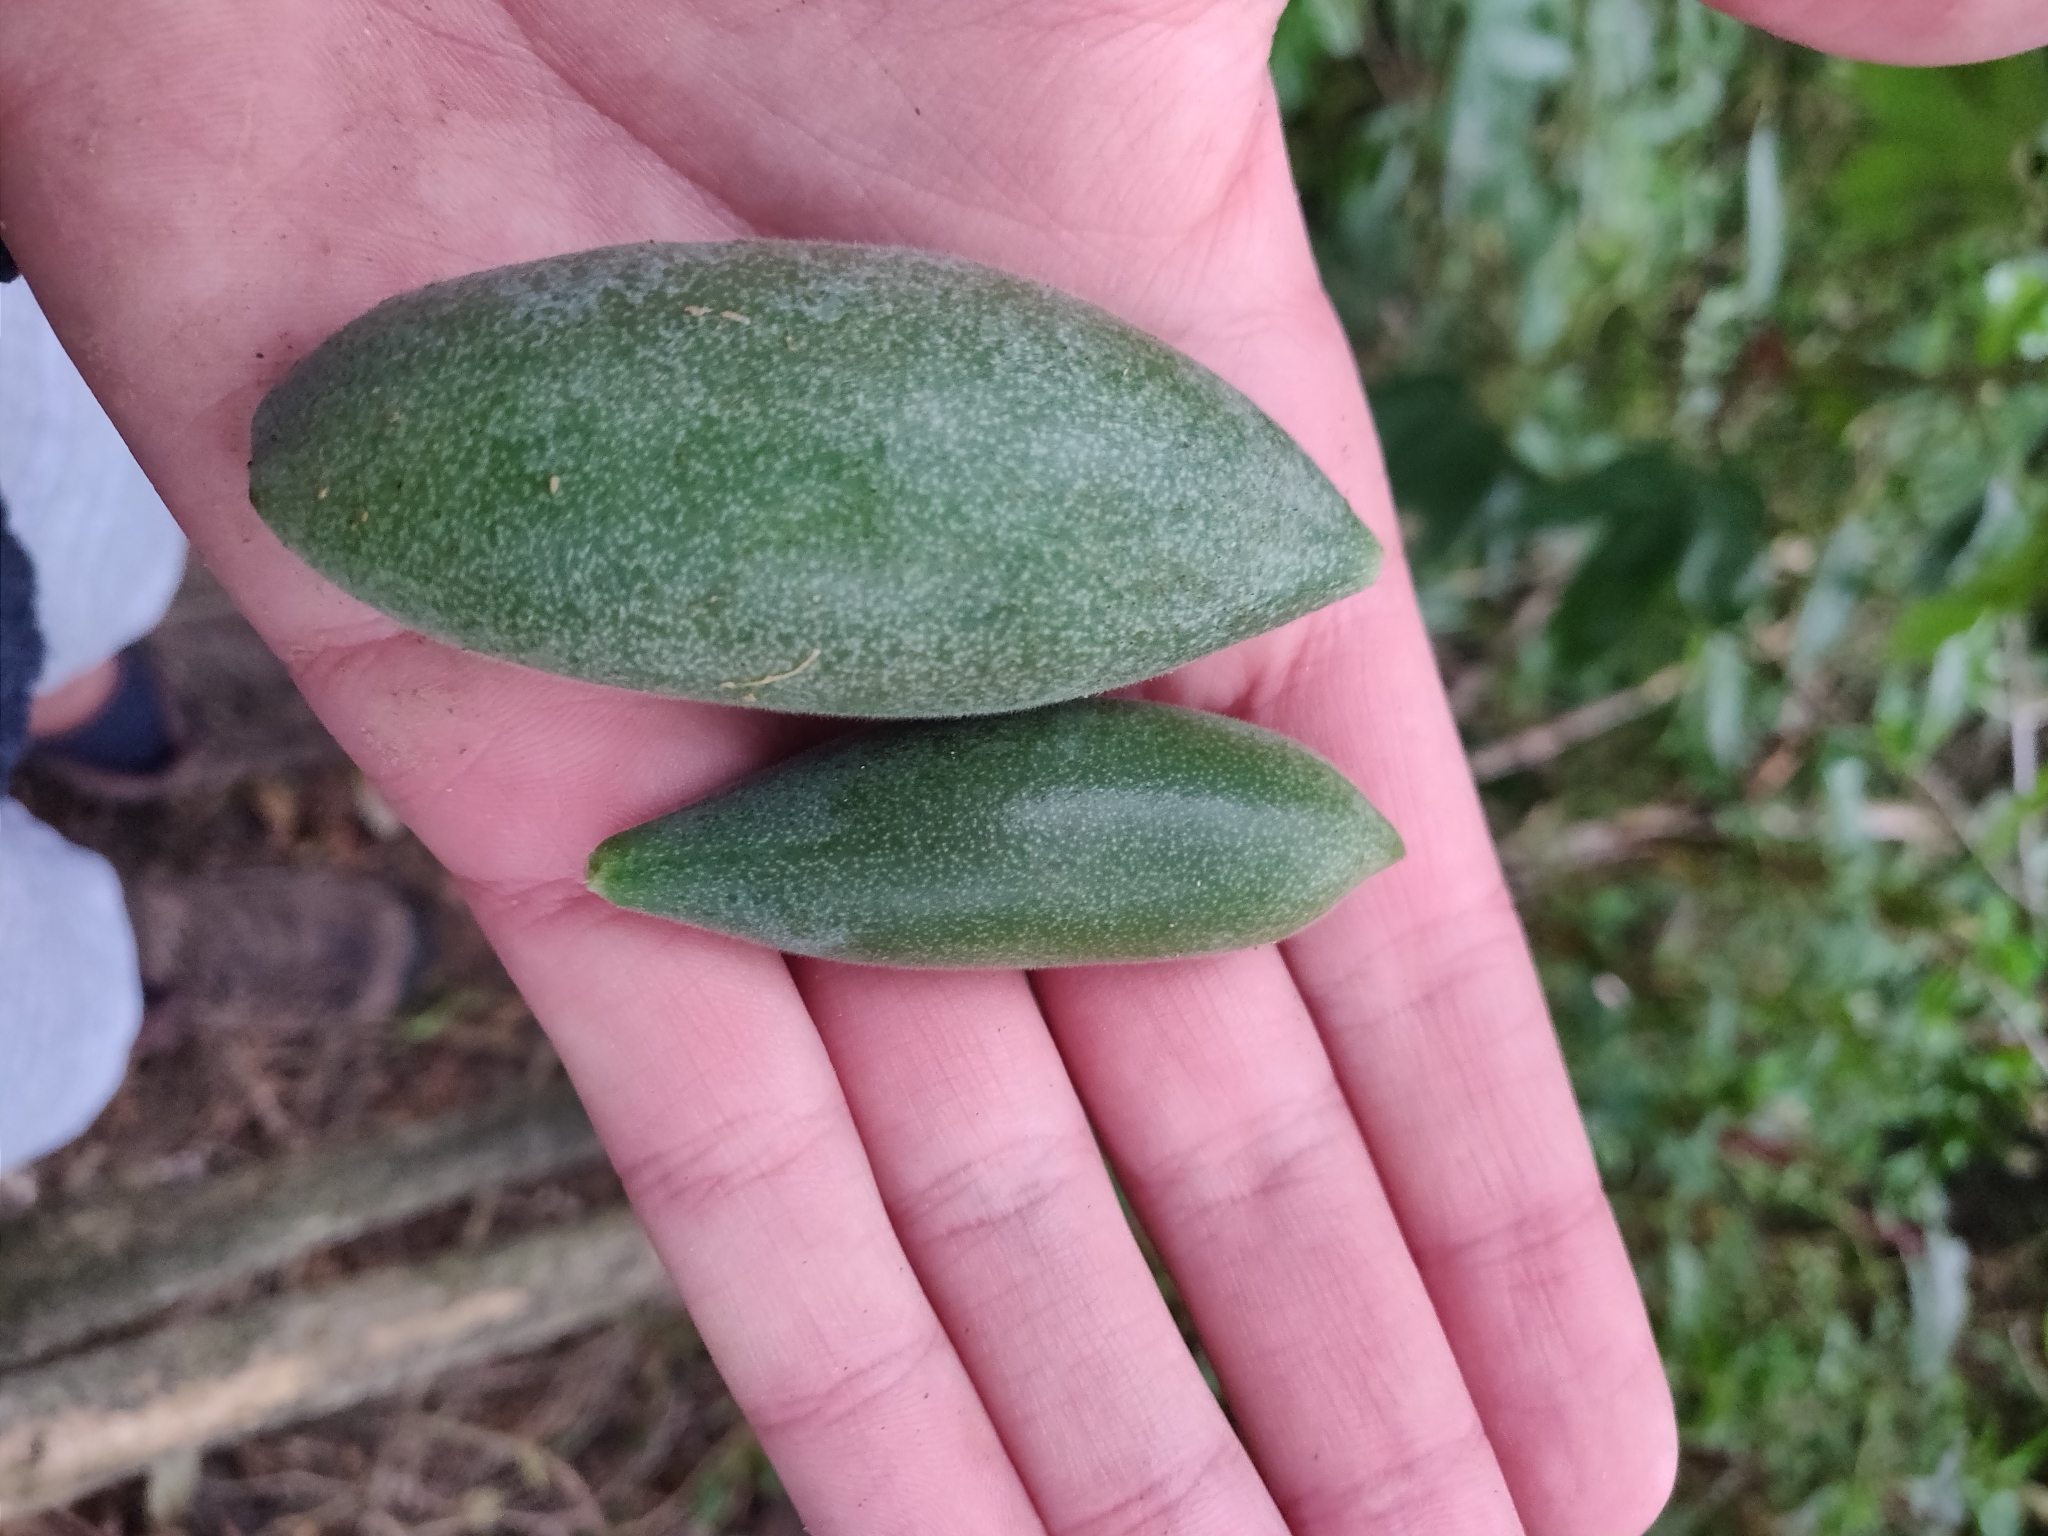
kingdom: Plantae
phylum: Tracheophyta
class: Magnoliopsida
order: Malpighiales
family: Passifloraceae
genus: Passiflora
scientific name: Passiflora tarminiana
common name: Banana poka
